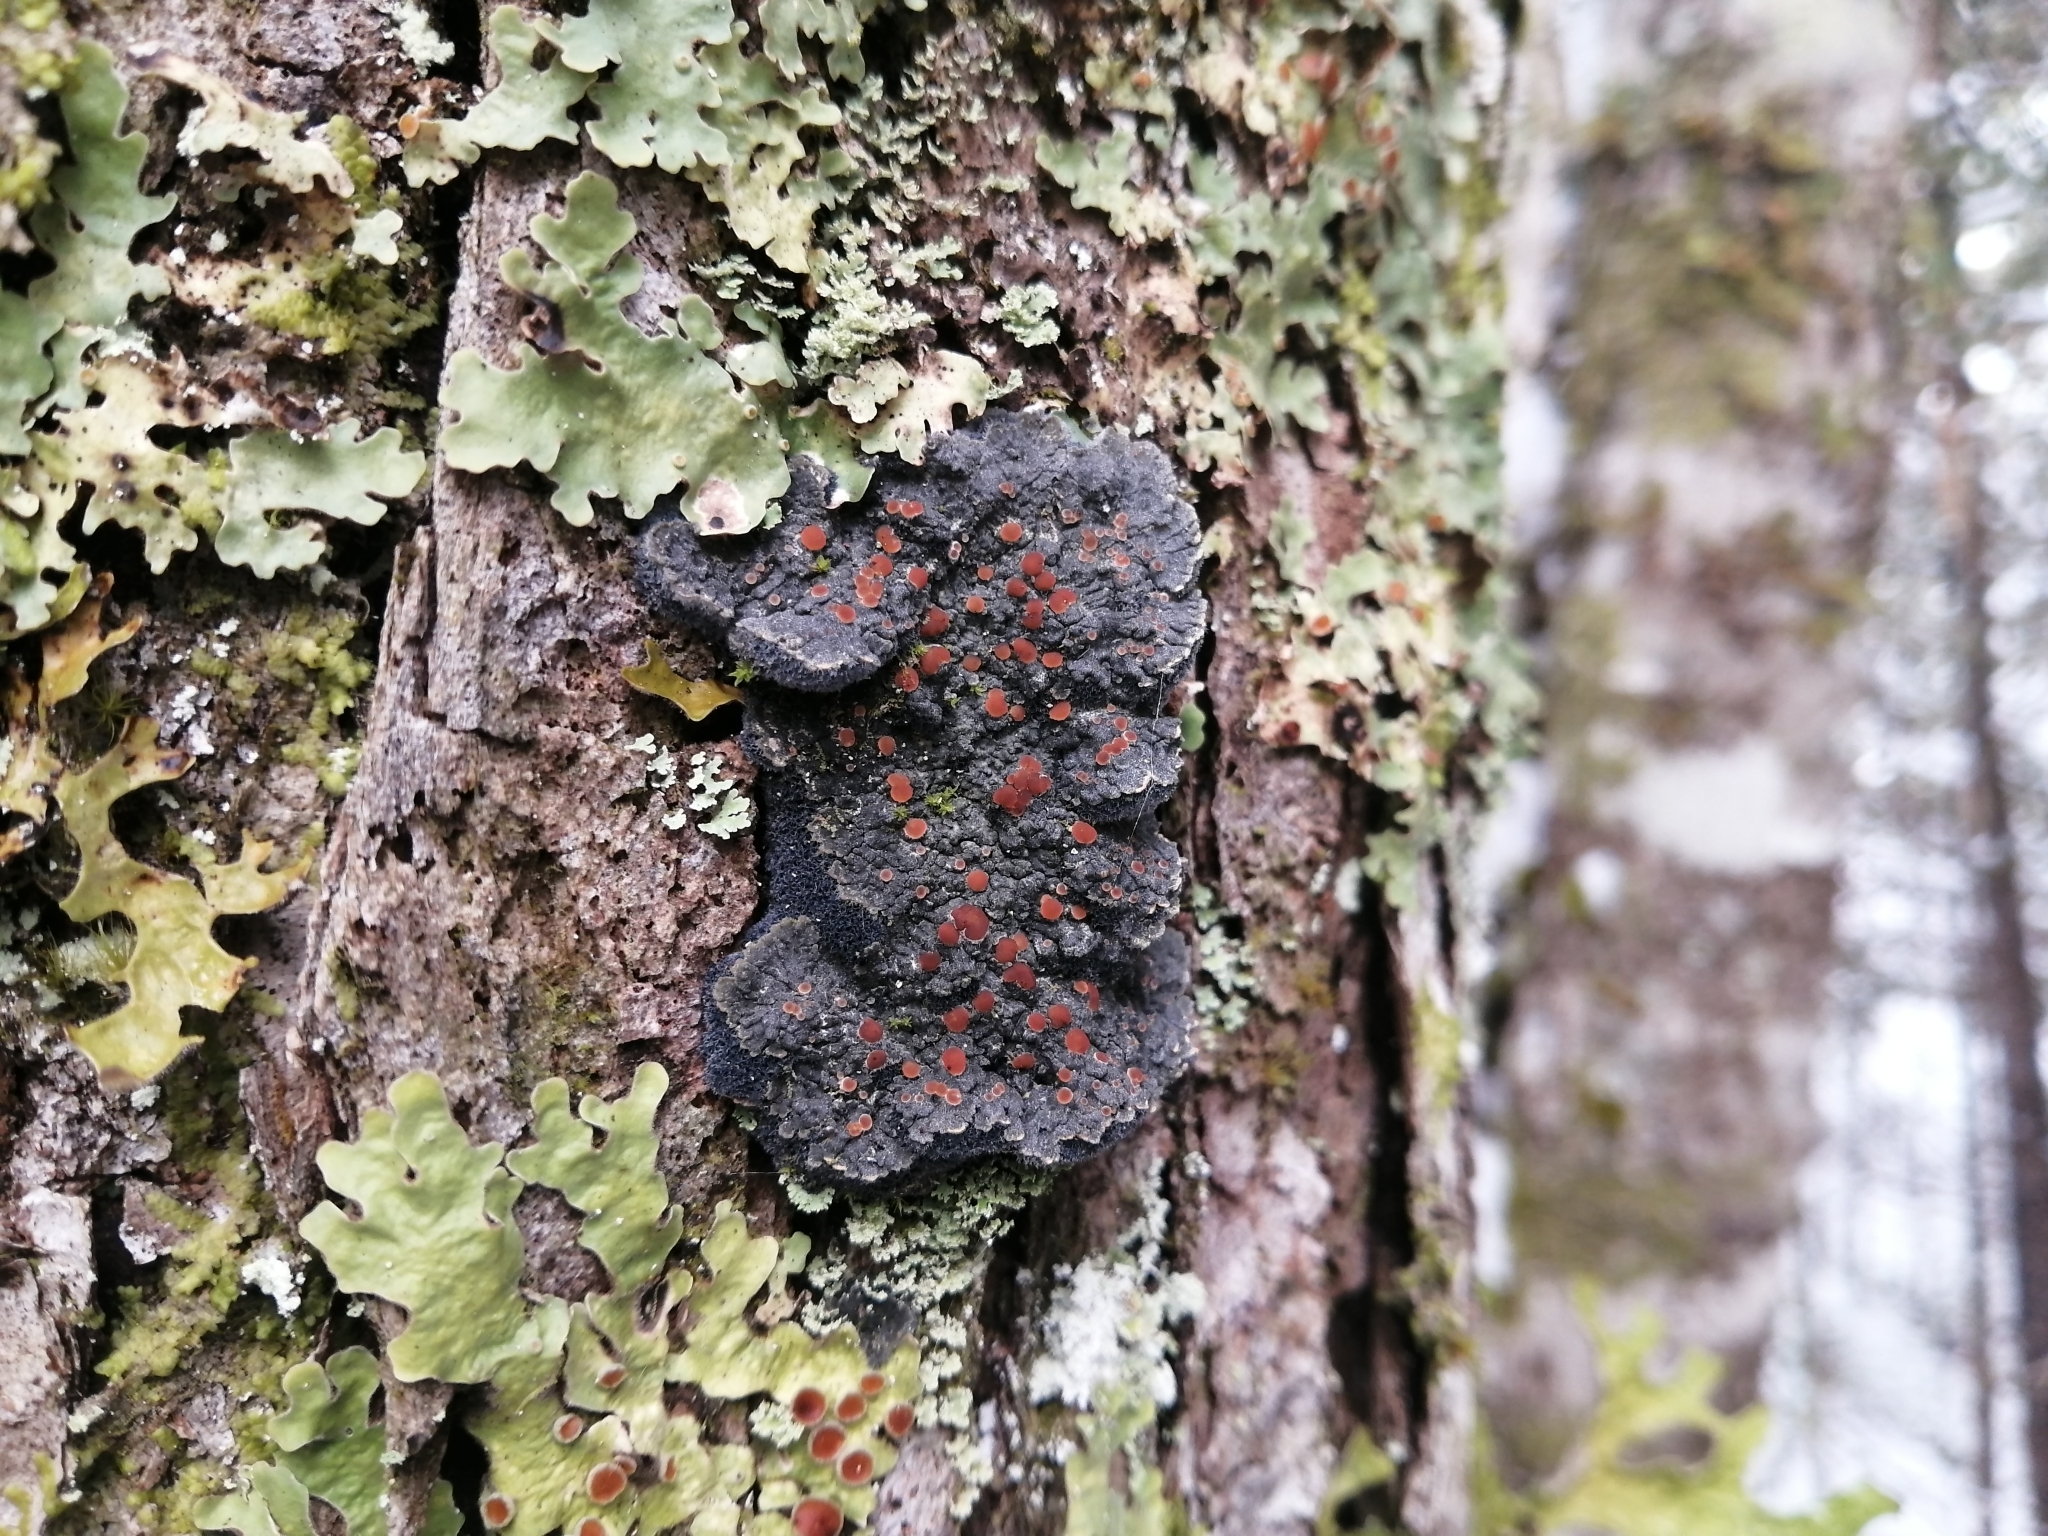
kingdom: Fungi
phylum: Ascomycota
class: Lecanoromycetes
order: Peltigerales
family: Pannariaceae
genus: Pectenia
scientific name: Pectenia plumbea
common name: Bladder stalks
